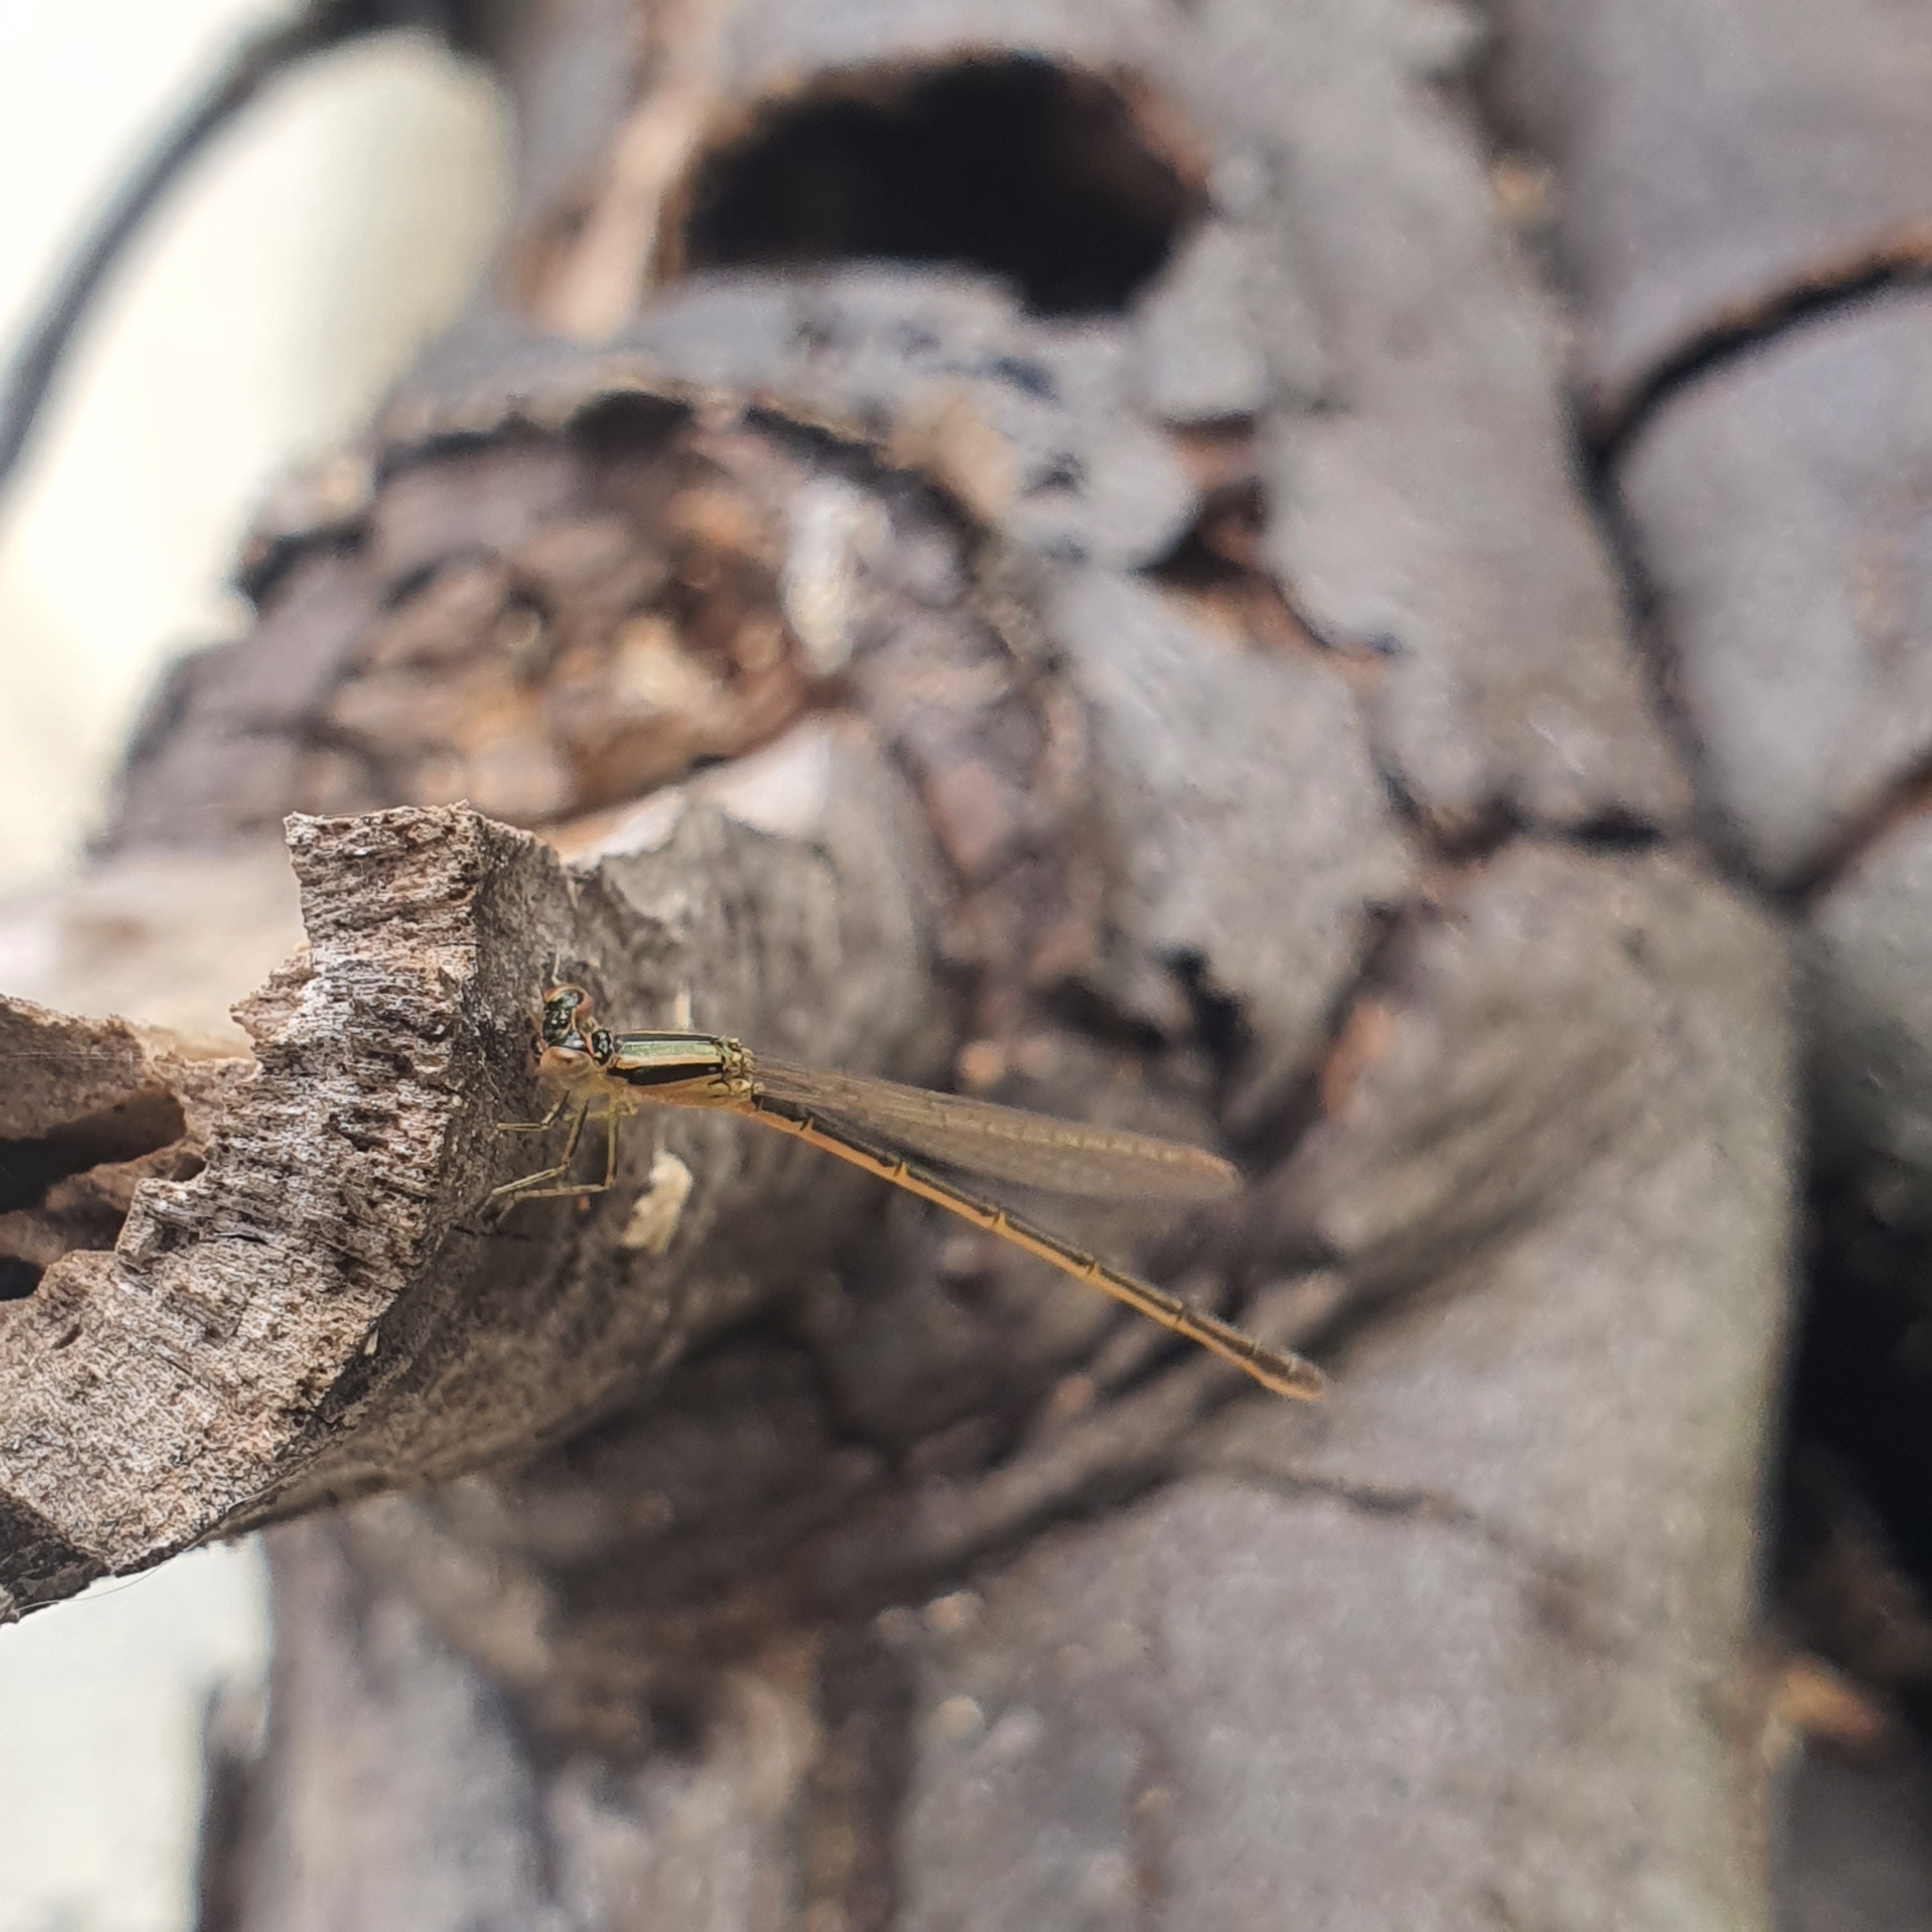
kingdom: Animalia
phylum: Arthropoda
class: Insecta
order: Odonata
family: Coenagrionidae
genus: Ischnura
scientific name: Ischnura aurora
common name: Gossamer damselfly
